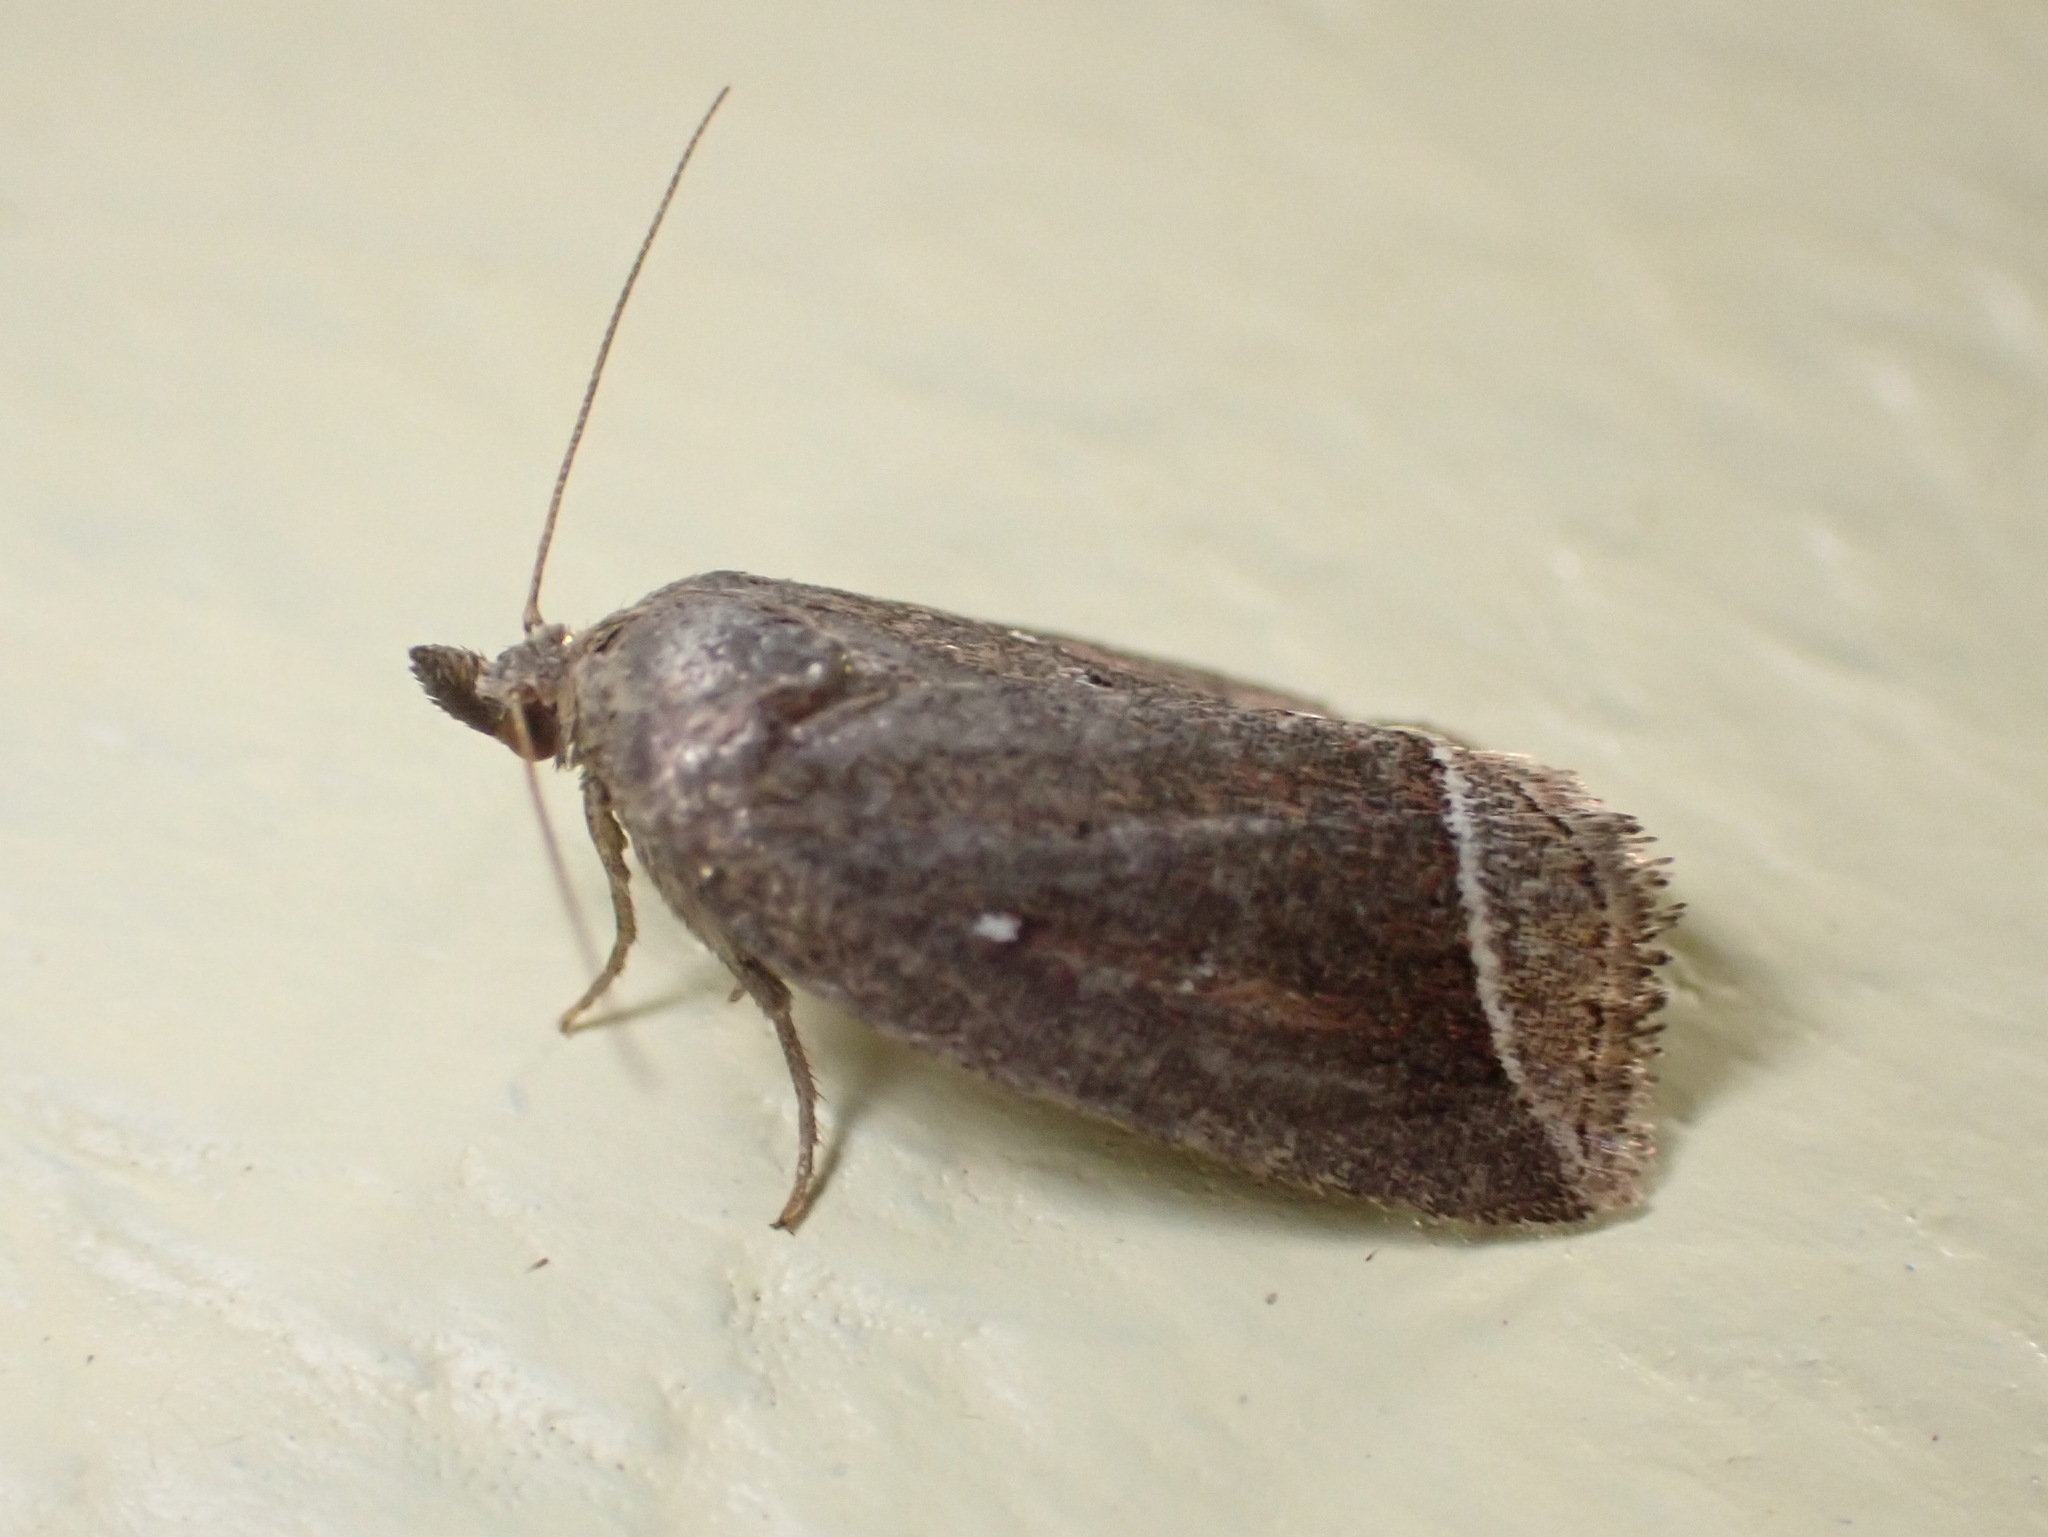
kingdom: Animalia
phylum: Arthropoda
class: Insecta
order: Lepidoptera
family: Erebidae
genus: Capis
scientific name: Capis curvata
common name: Curved halter moth
